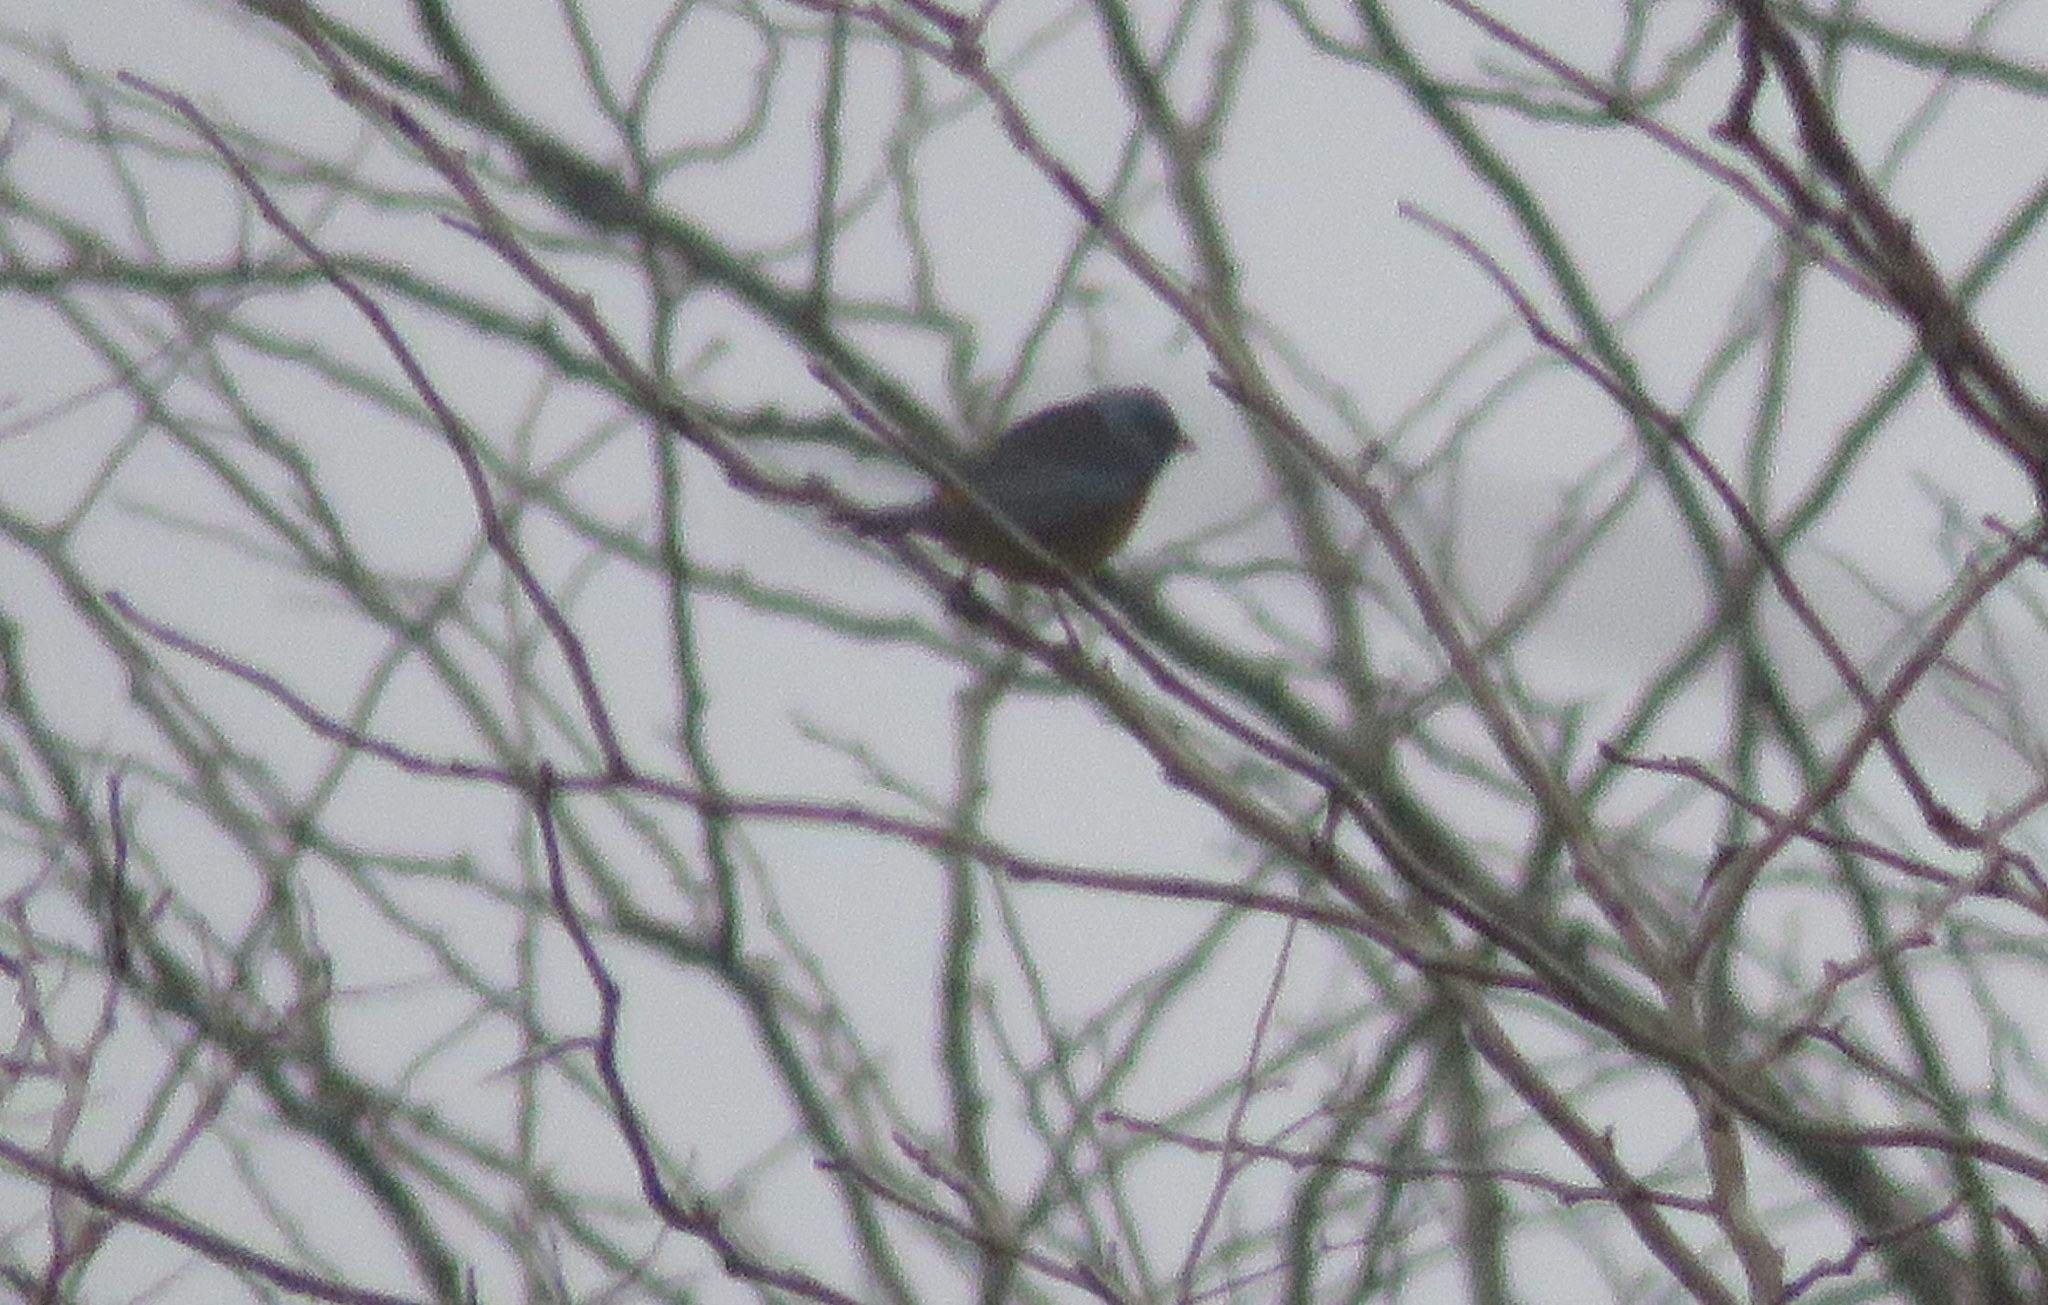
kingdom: Animalia
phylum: Chordata
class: Aves
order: Passeriformes
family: Thraupidae
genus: Rauenia
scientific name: Rauenia bonariensis
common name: Blue-and-yellow tanager
